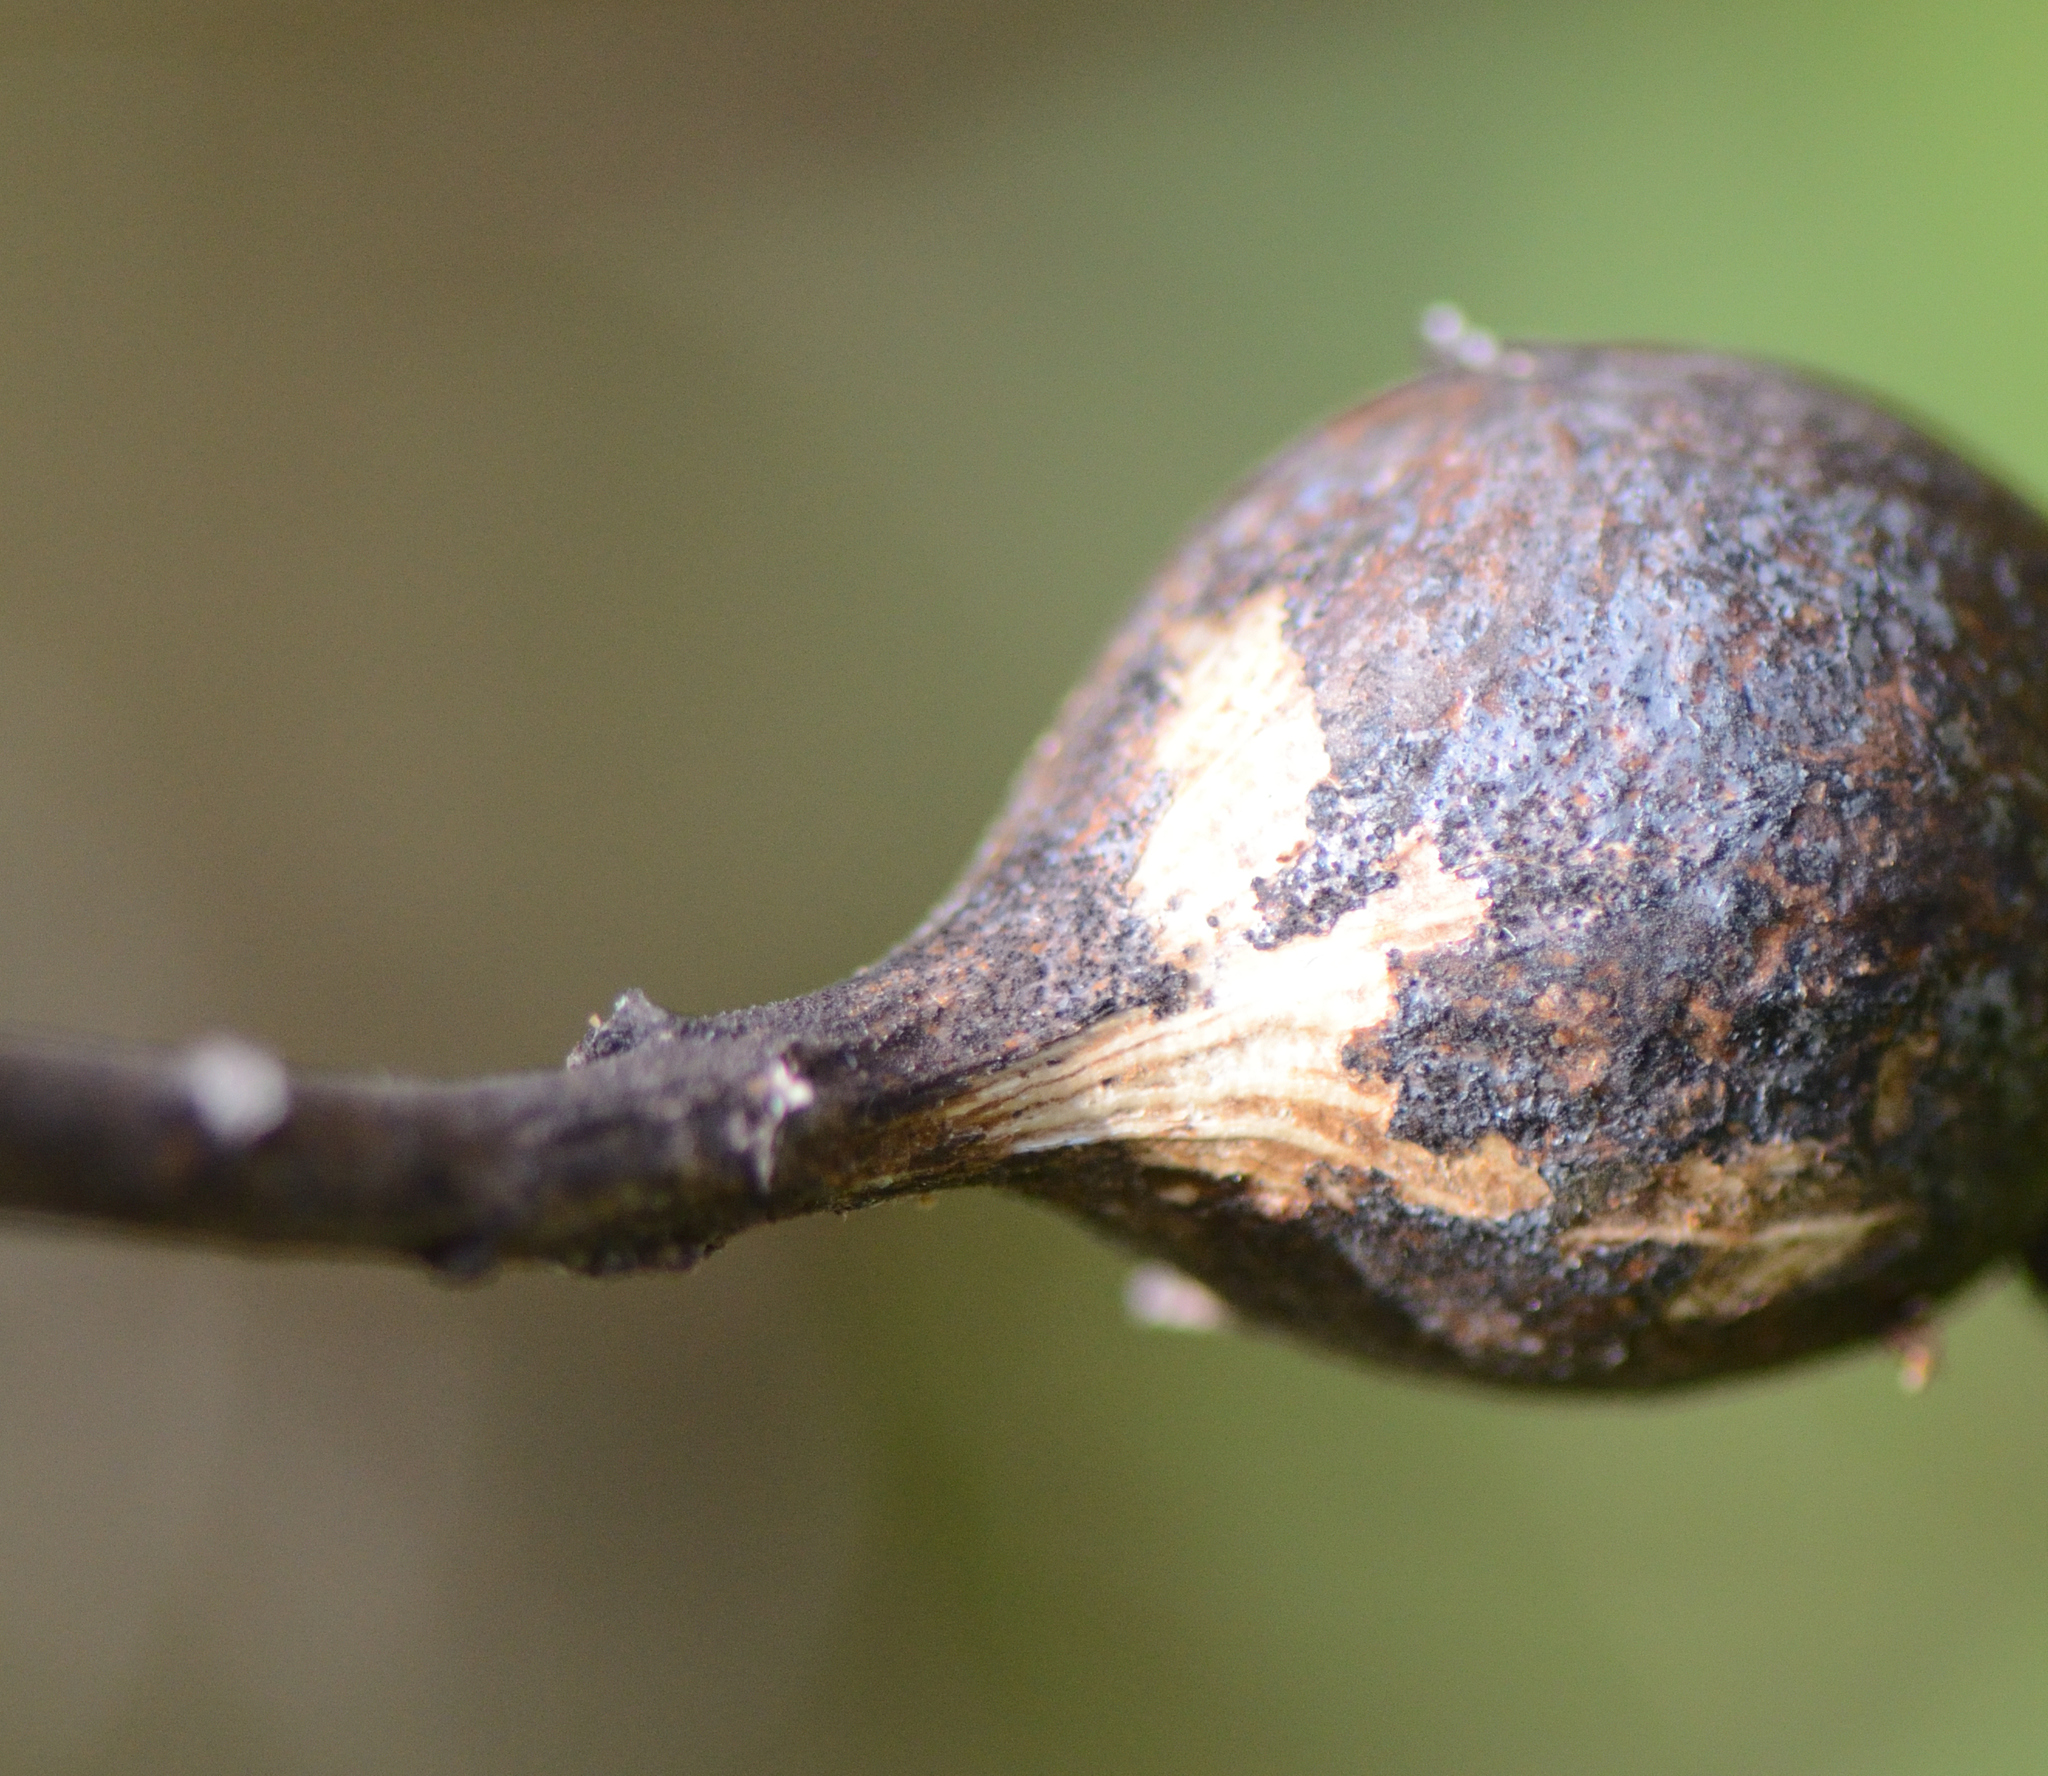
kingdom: Animalia
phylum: Arthropoda
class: Insecta
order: Diptera
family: Tephritidae
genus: Eurosta
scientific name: Eurosta solidaginis
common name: Goldenrod gall fly
